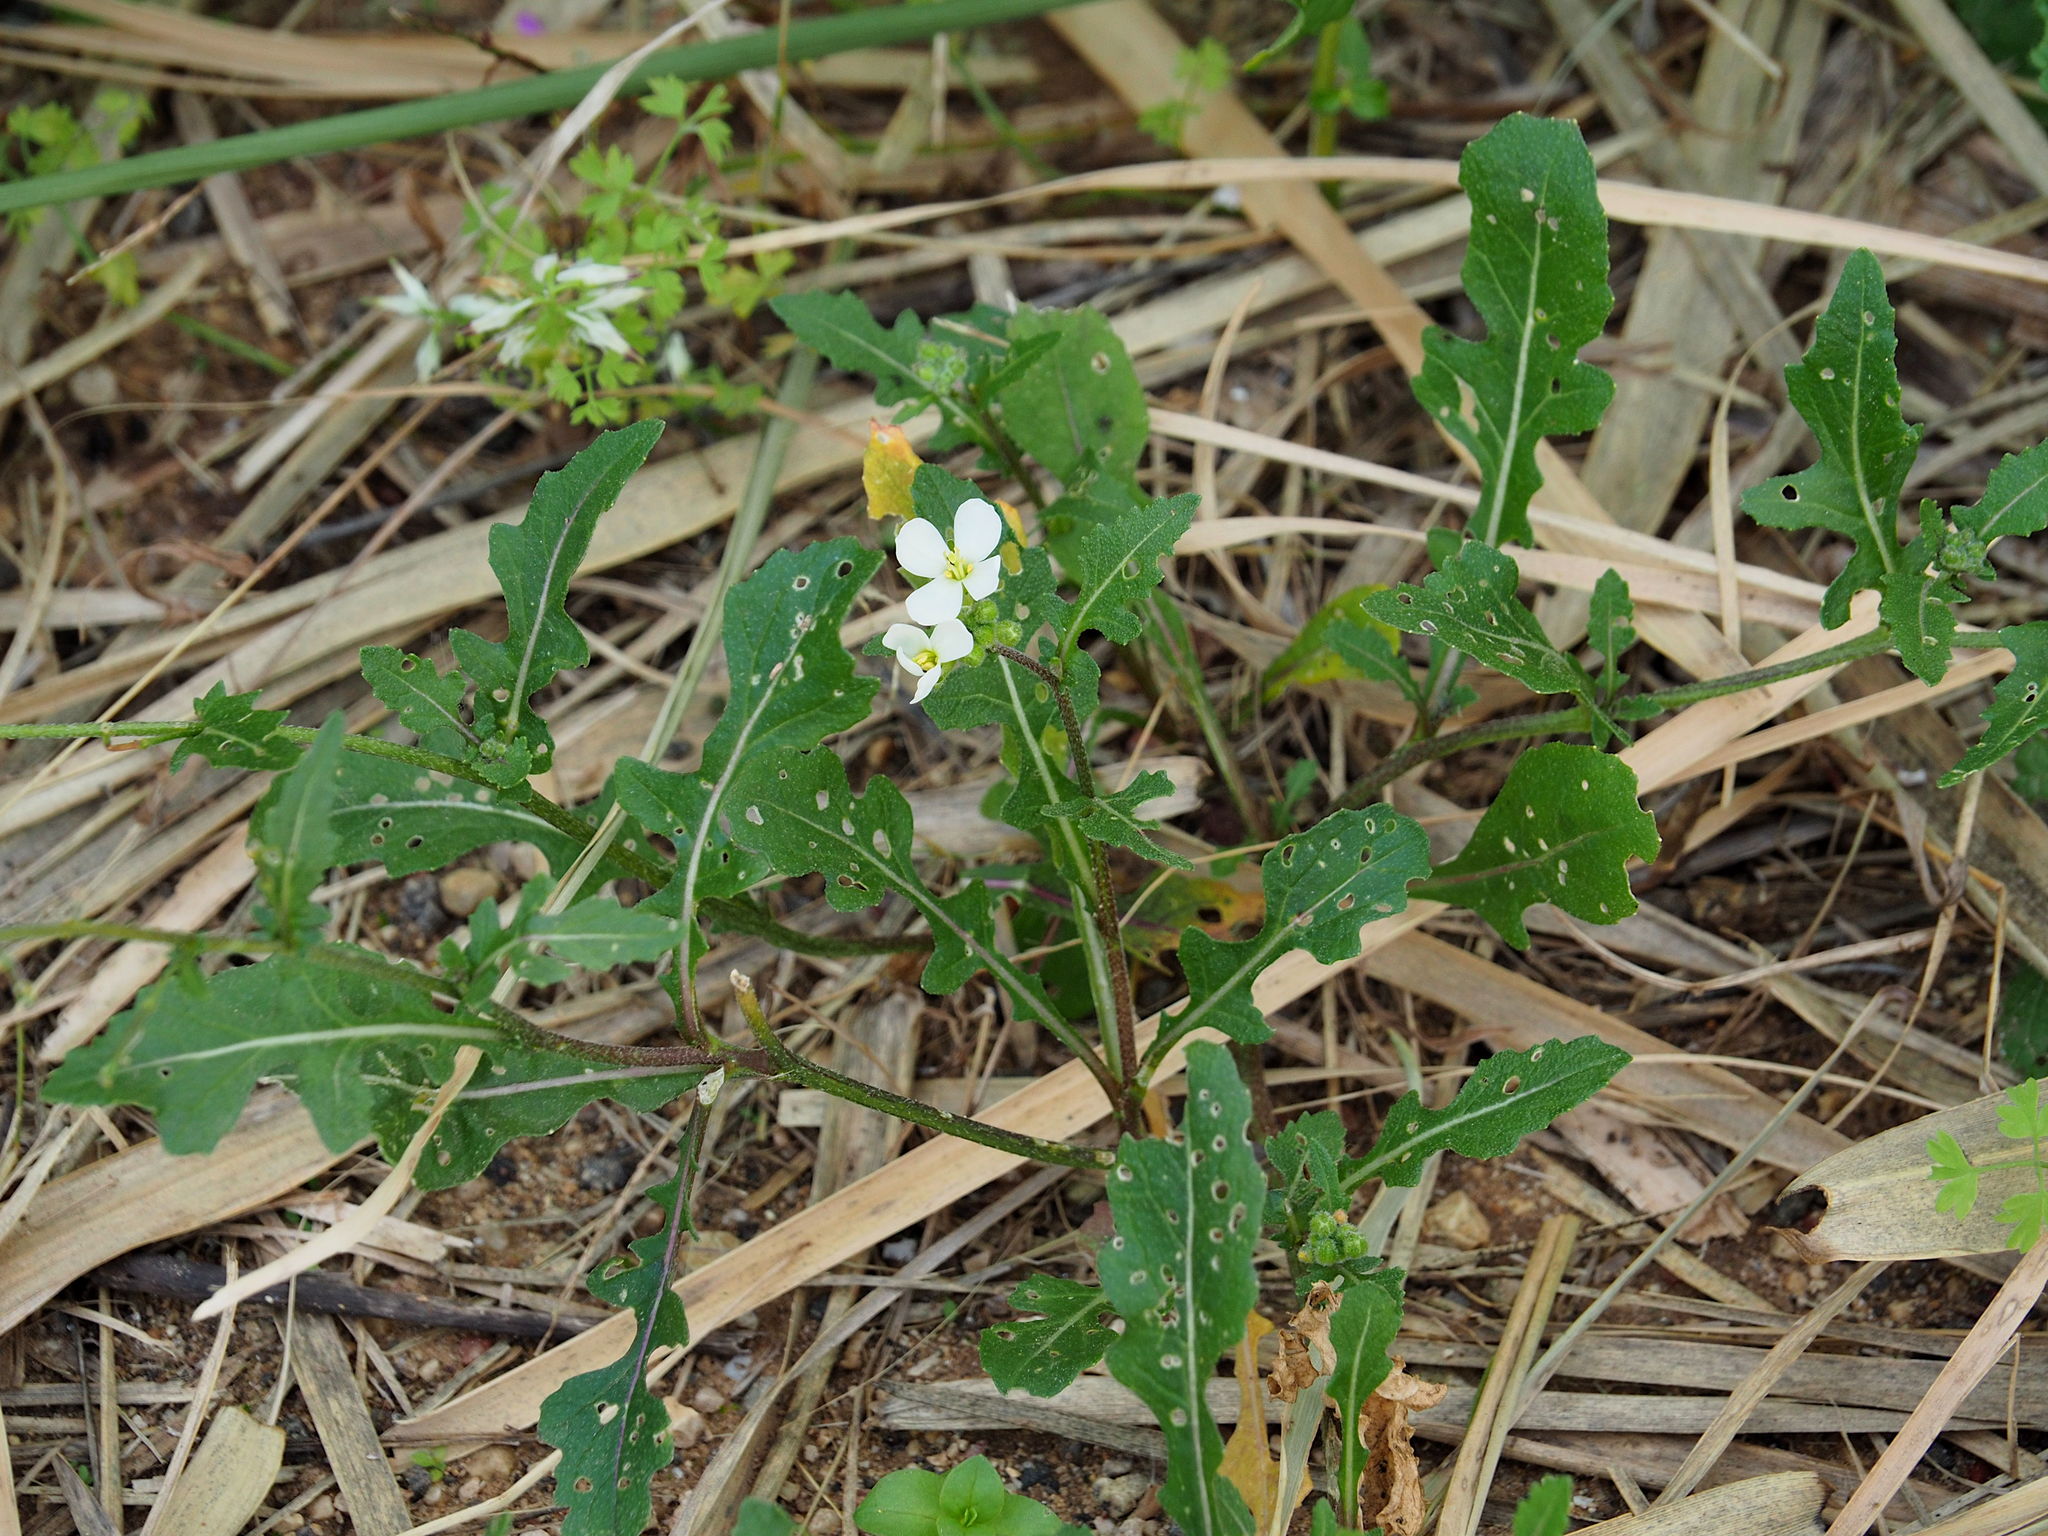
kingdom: Plantae
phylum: Tracheophyta
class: Magnoliopsida
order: Brassicales
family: Brassicaceae
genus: Diplotaxis
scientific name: Diplotaxis erucoides
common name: White rocket
